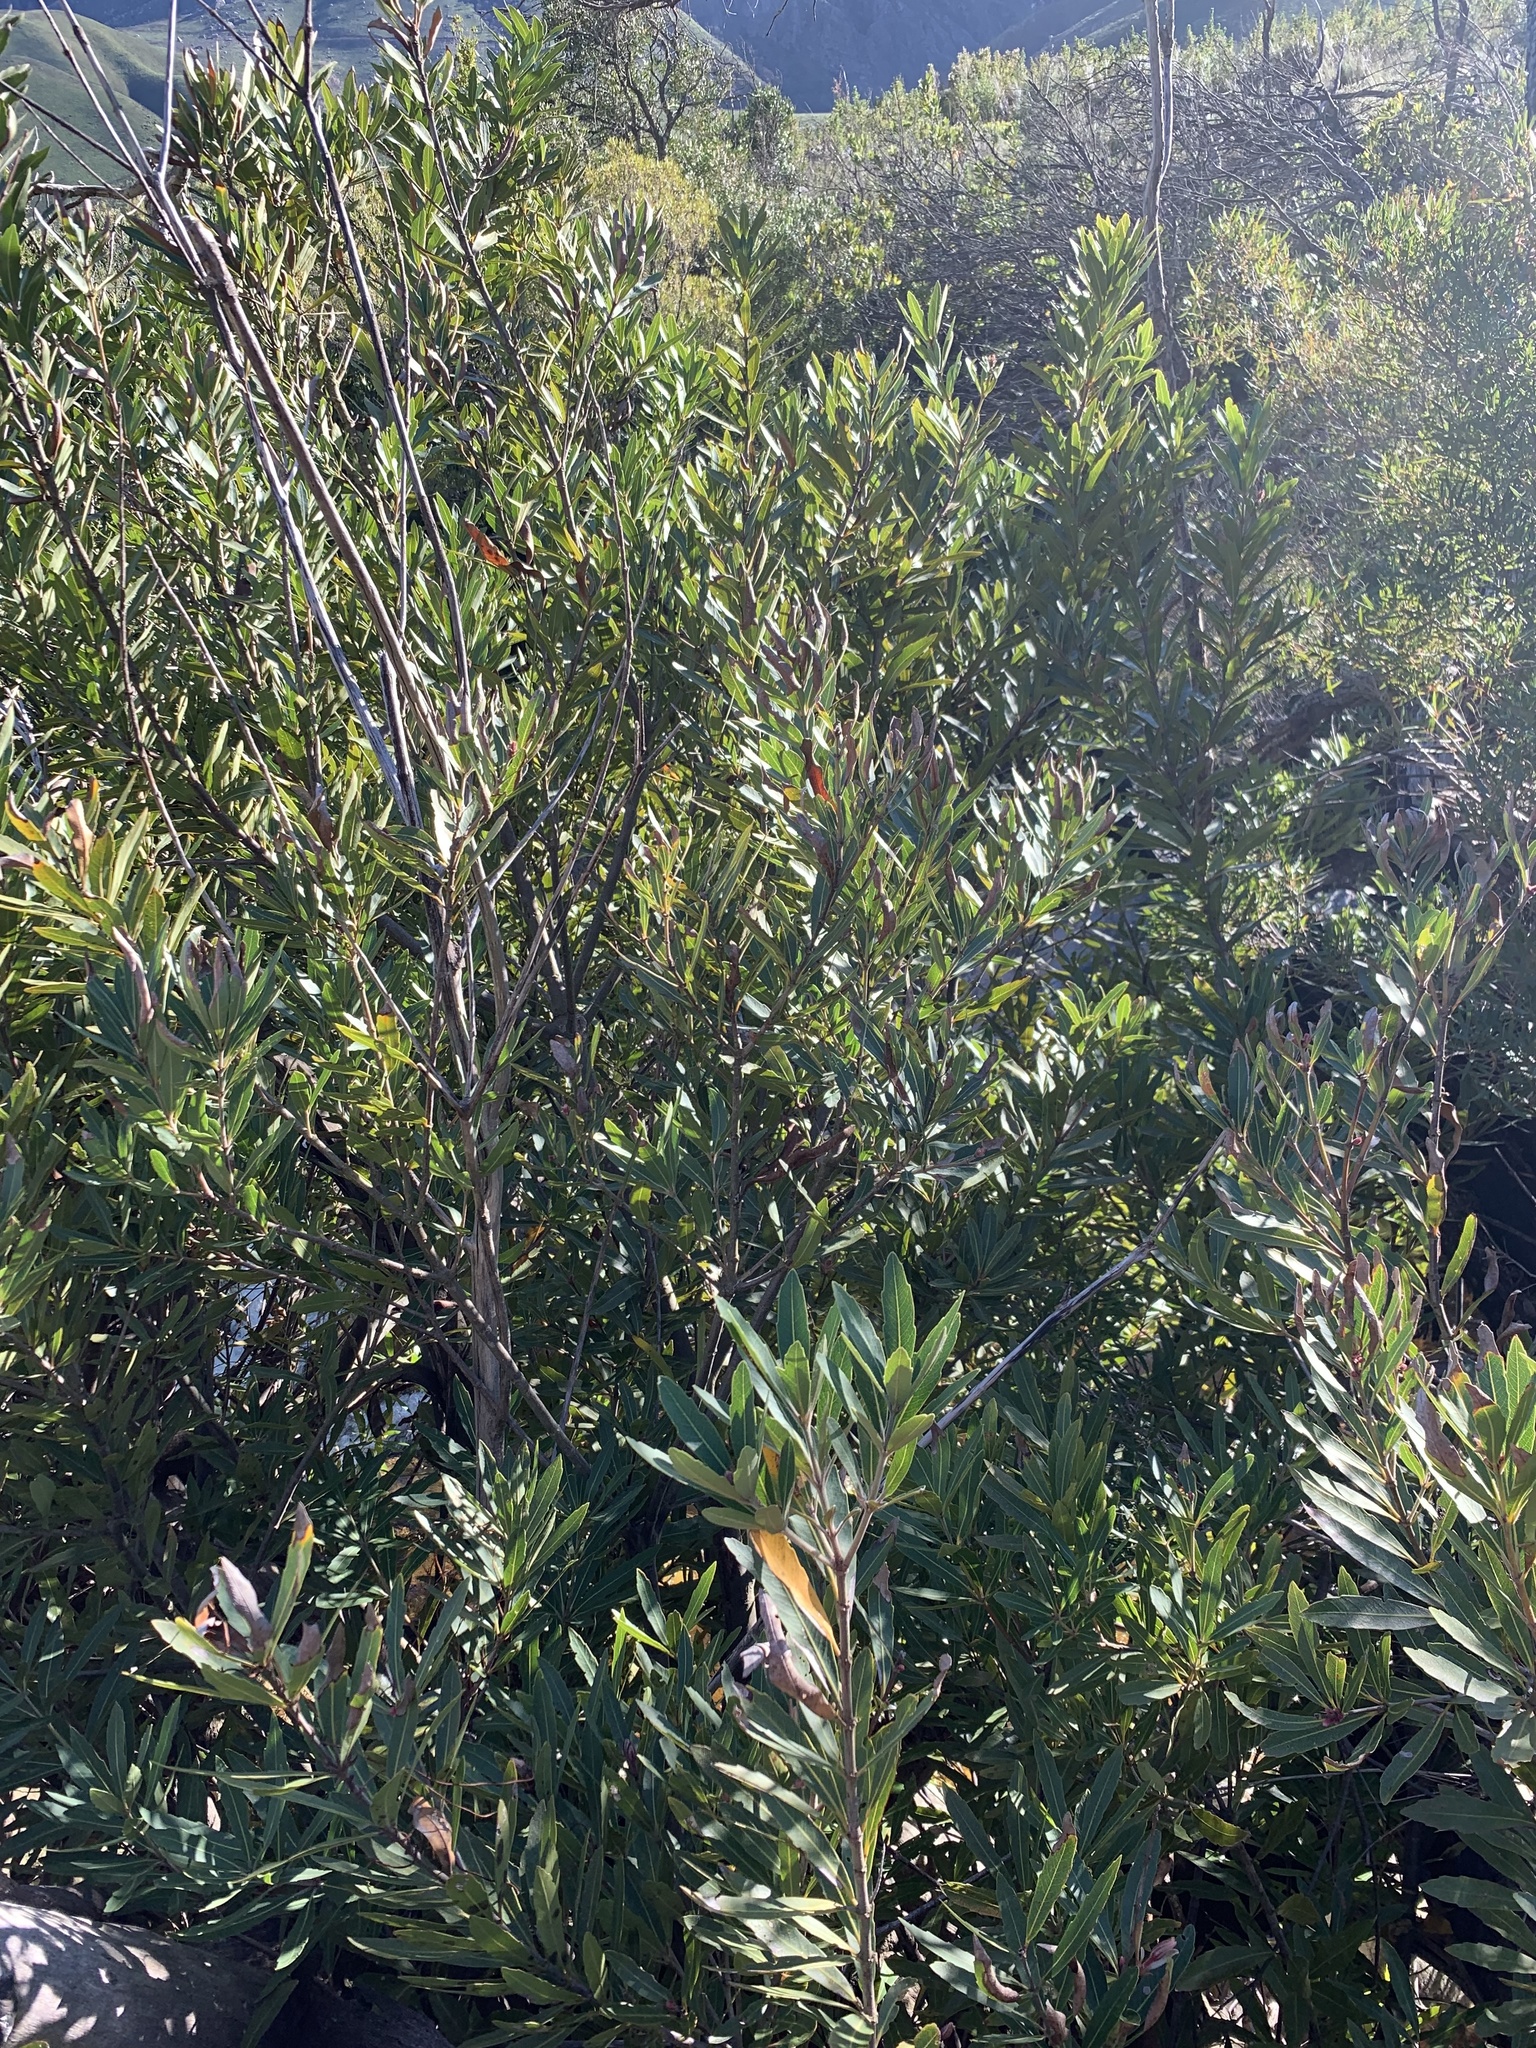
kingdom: Plantae
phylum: Tracheophyta
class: Magnoliopsida
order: Proteales
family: Proteaceae
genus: Brabejum
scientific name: Brabejum stellatifolium
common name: Wild almond
